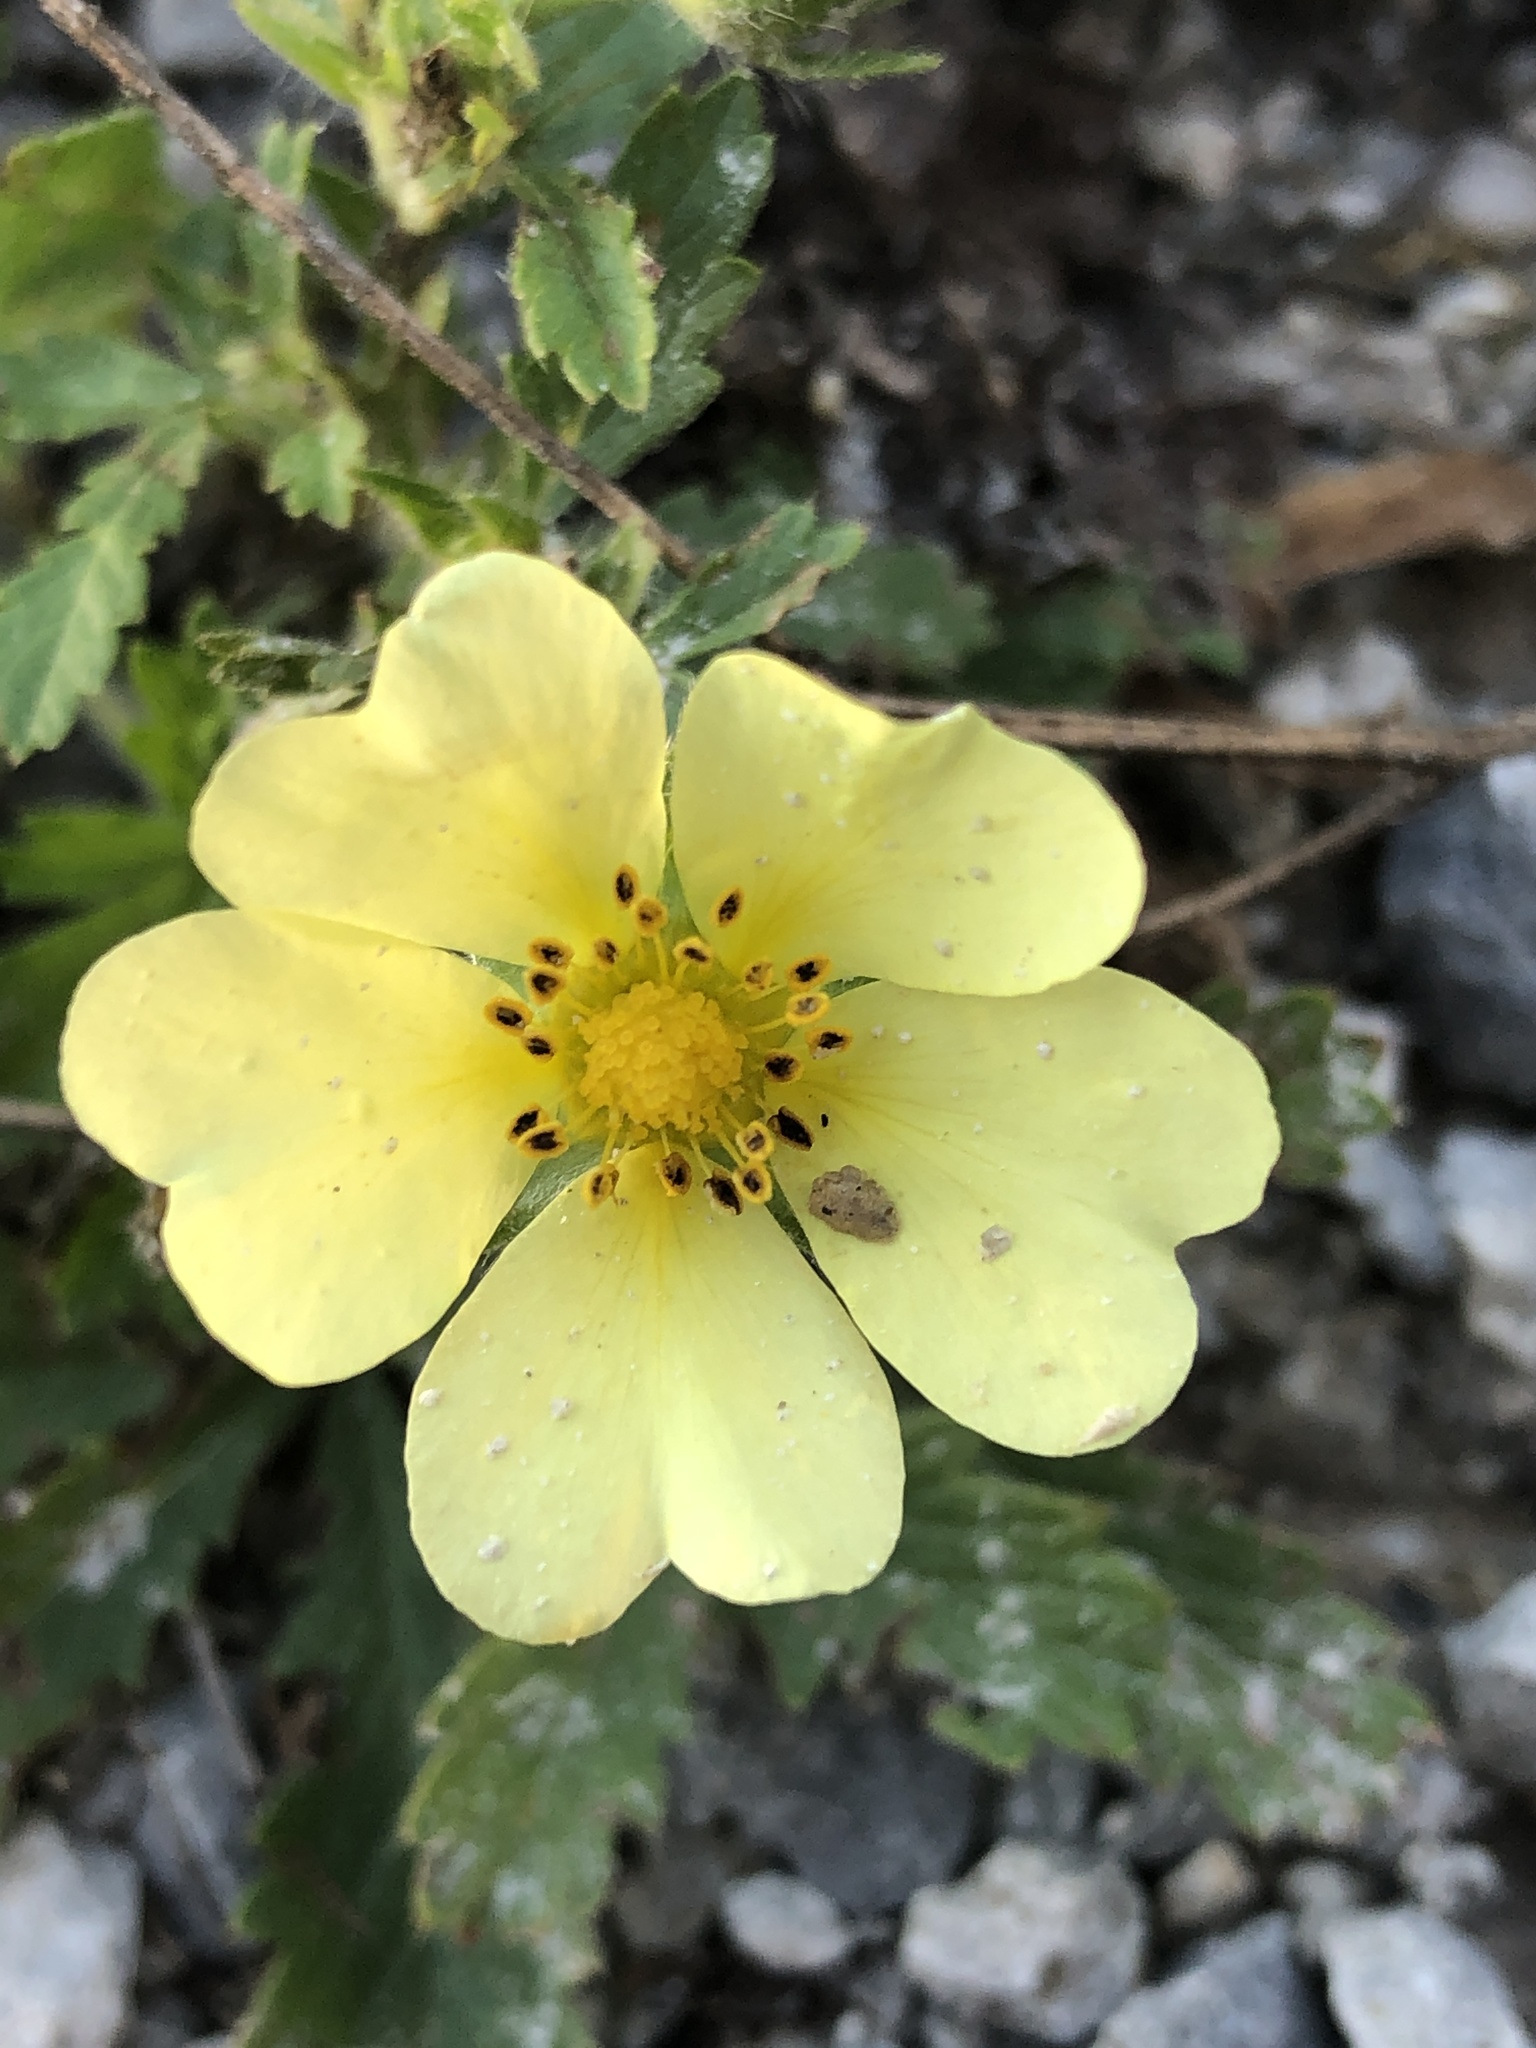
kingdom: Plantae
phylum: Tracheophyta
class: Magnoliopsida
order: Rosales
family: Rosaceae
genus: Potentilla
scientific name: Potentilla recta
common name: Sulphur cinquefoil
